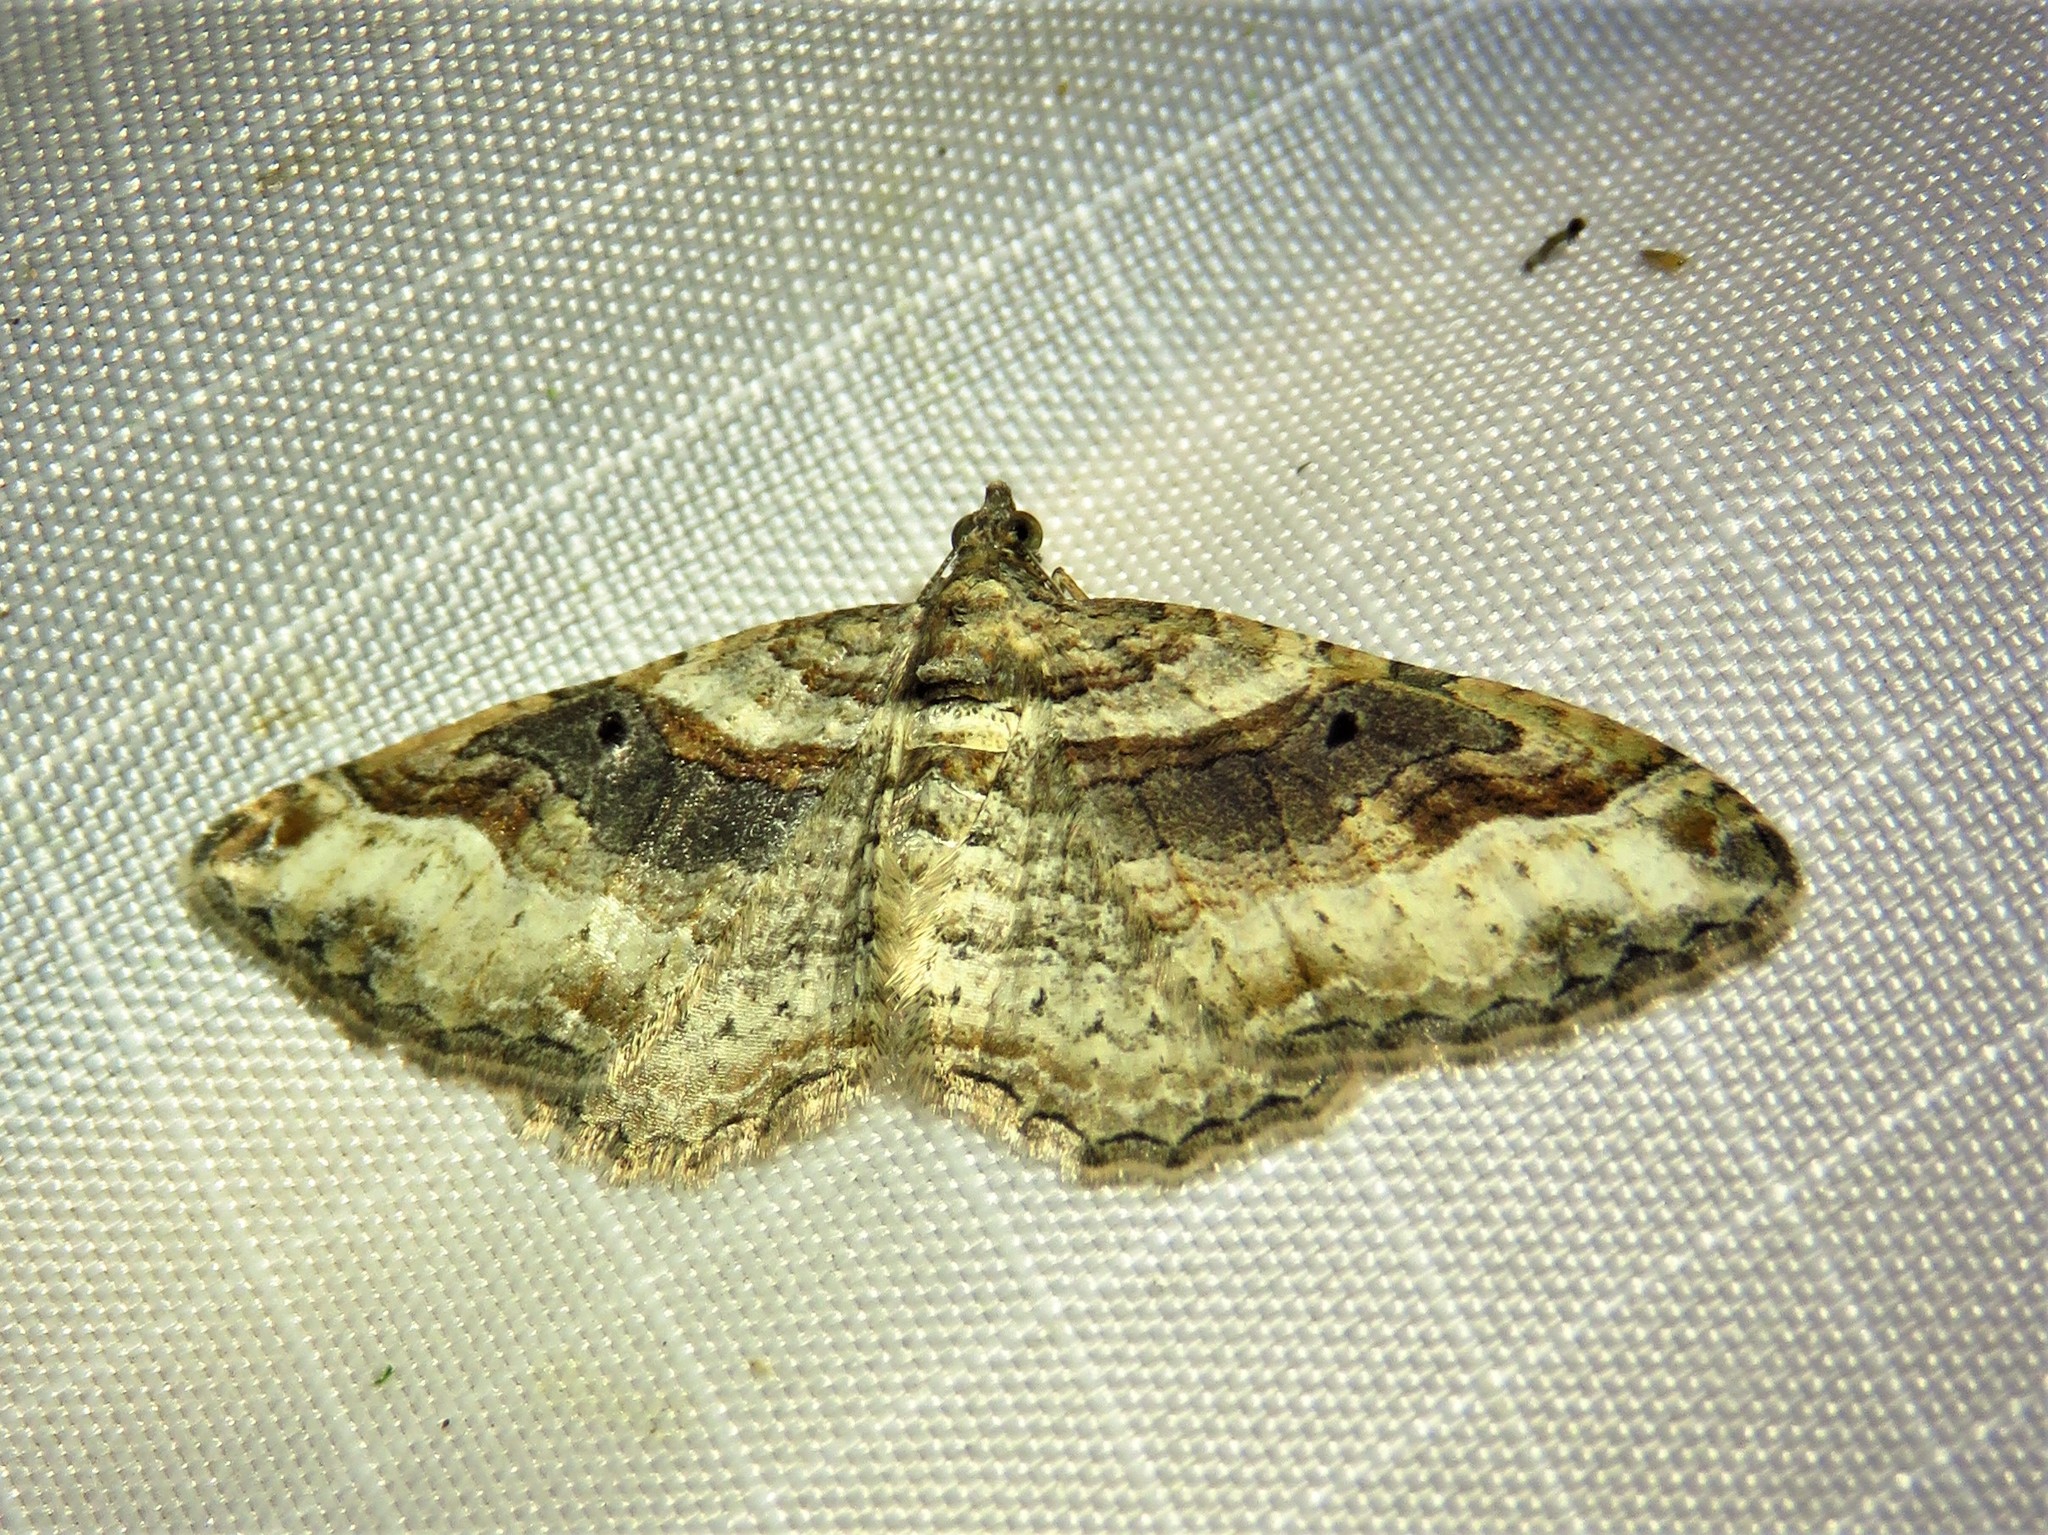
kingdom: Animalia
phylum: Arthropoda
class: Insecta
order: Lepidoptera
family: Geometridae
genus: Costaconvexa
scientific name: Costaconvexa centrostrigaria
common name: Bent-line carpet
